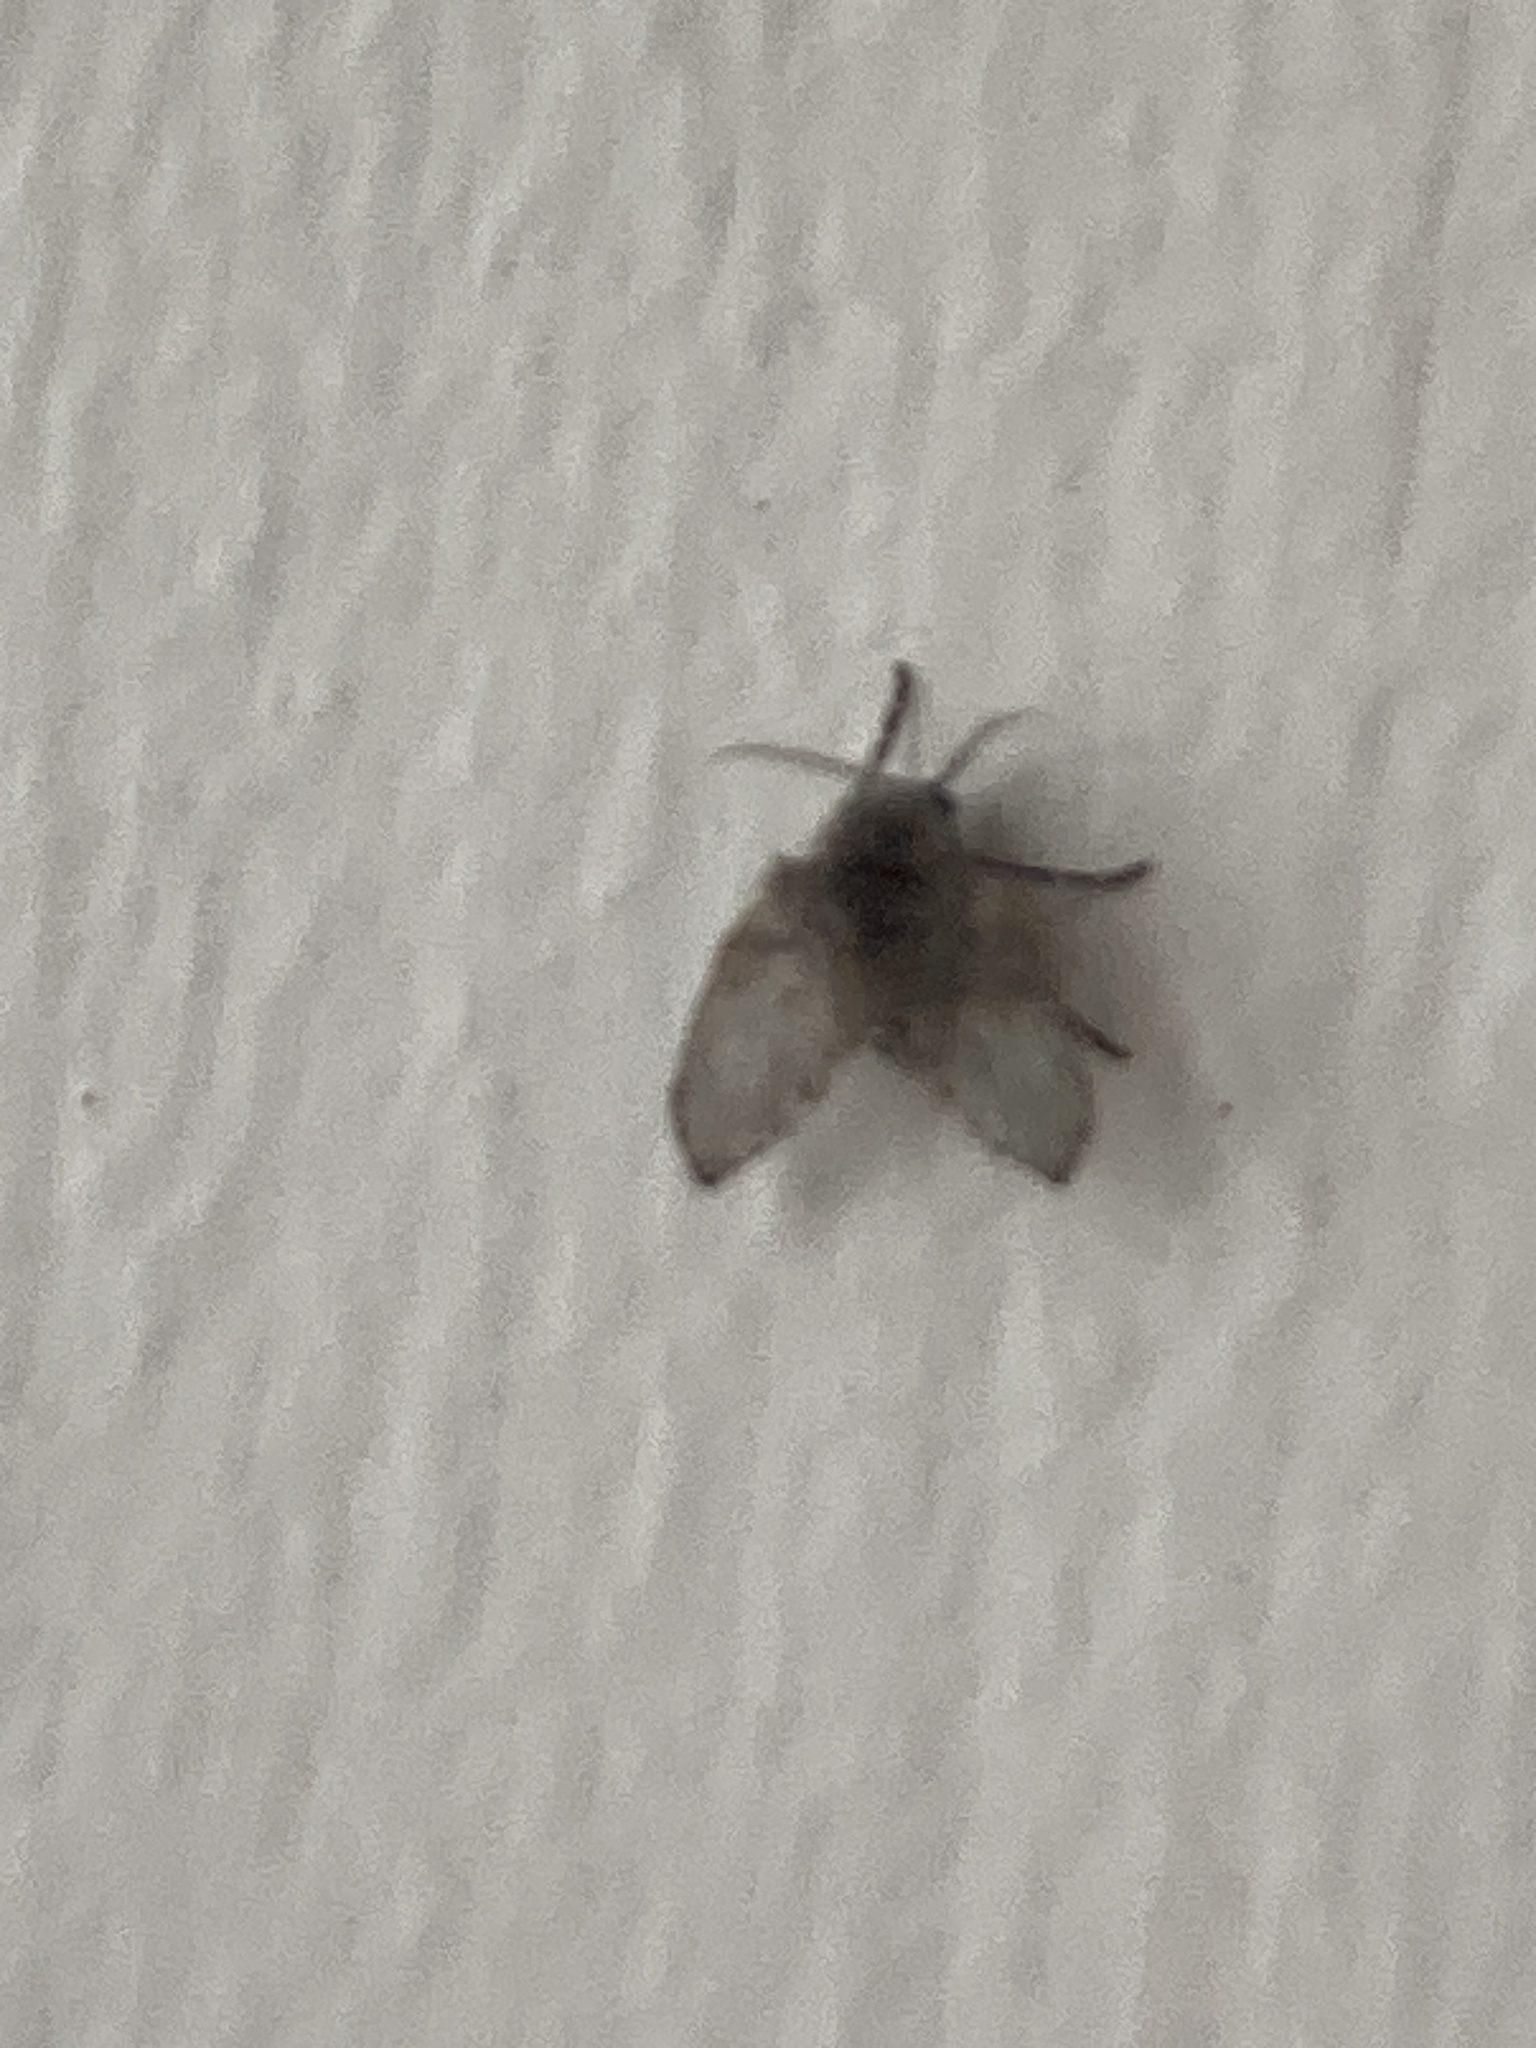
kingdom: Animalia
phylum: Arthropoda
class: Insecta
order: Diptera
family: Psychodidae
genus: Clogmia
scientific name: Clogmia albipunctatus
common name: White-spotted moth fly
